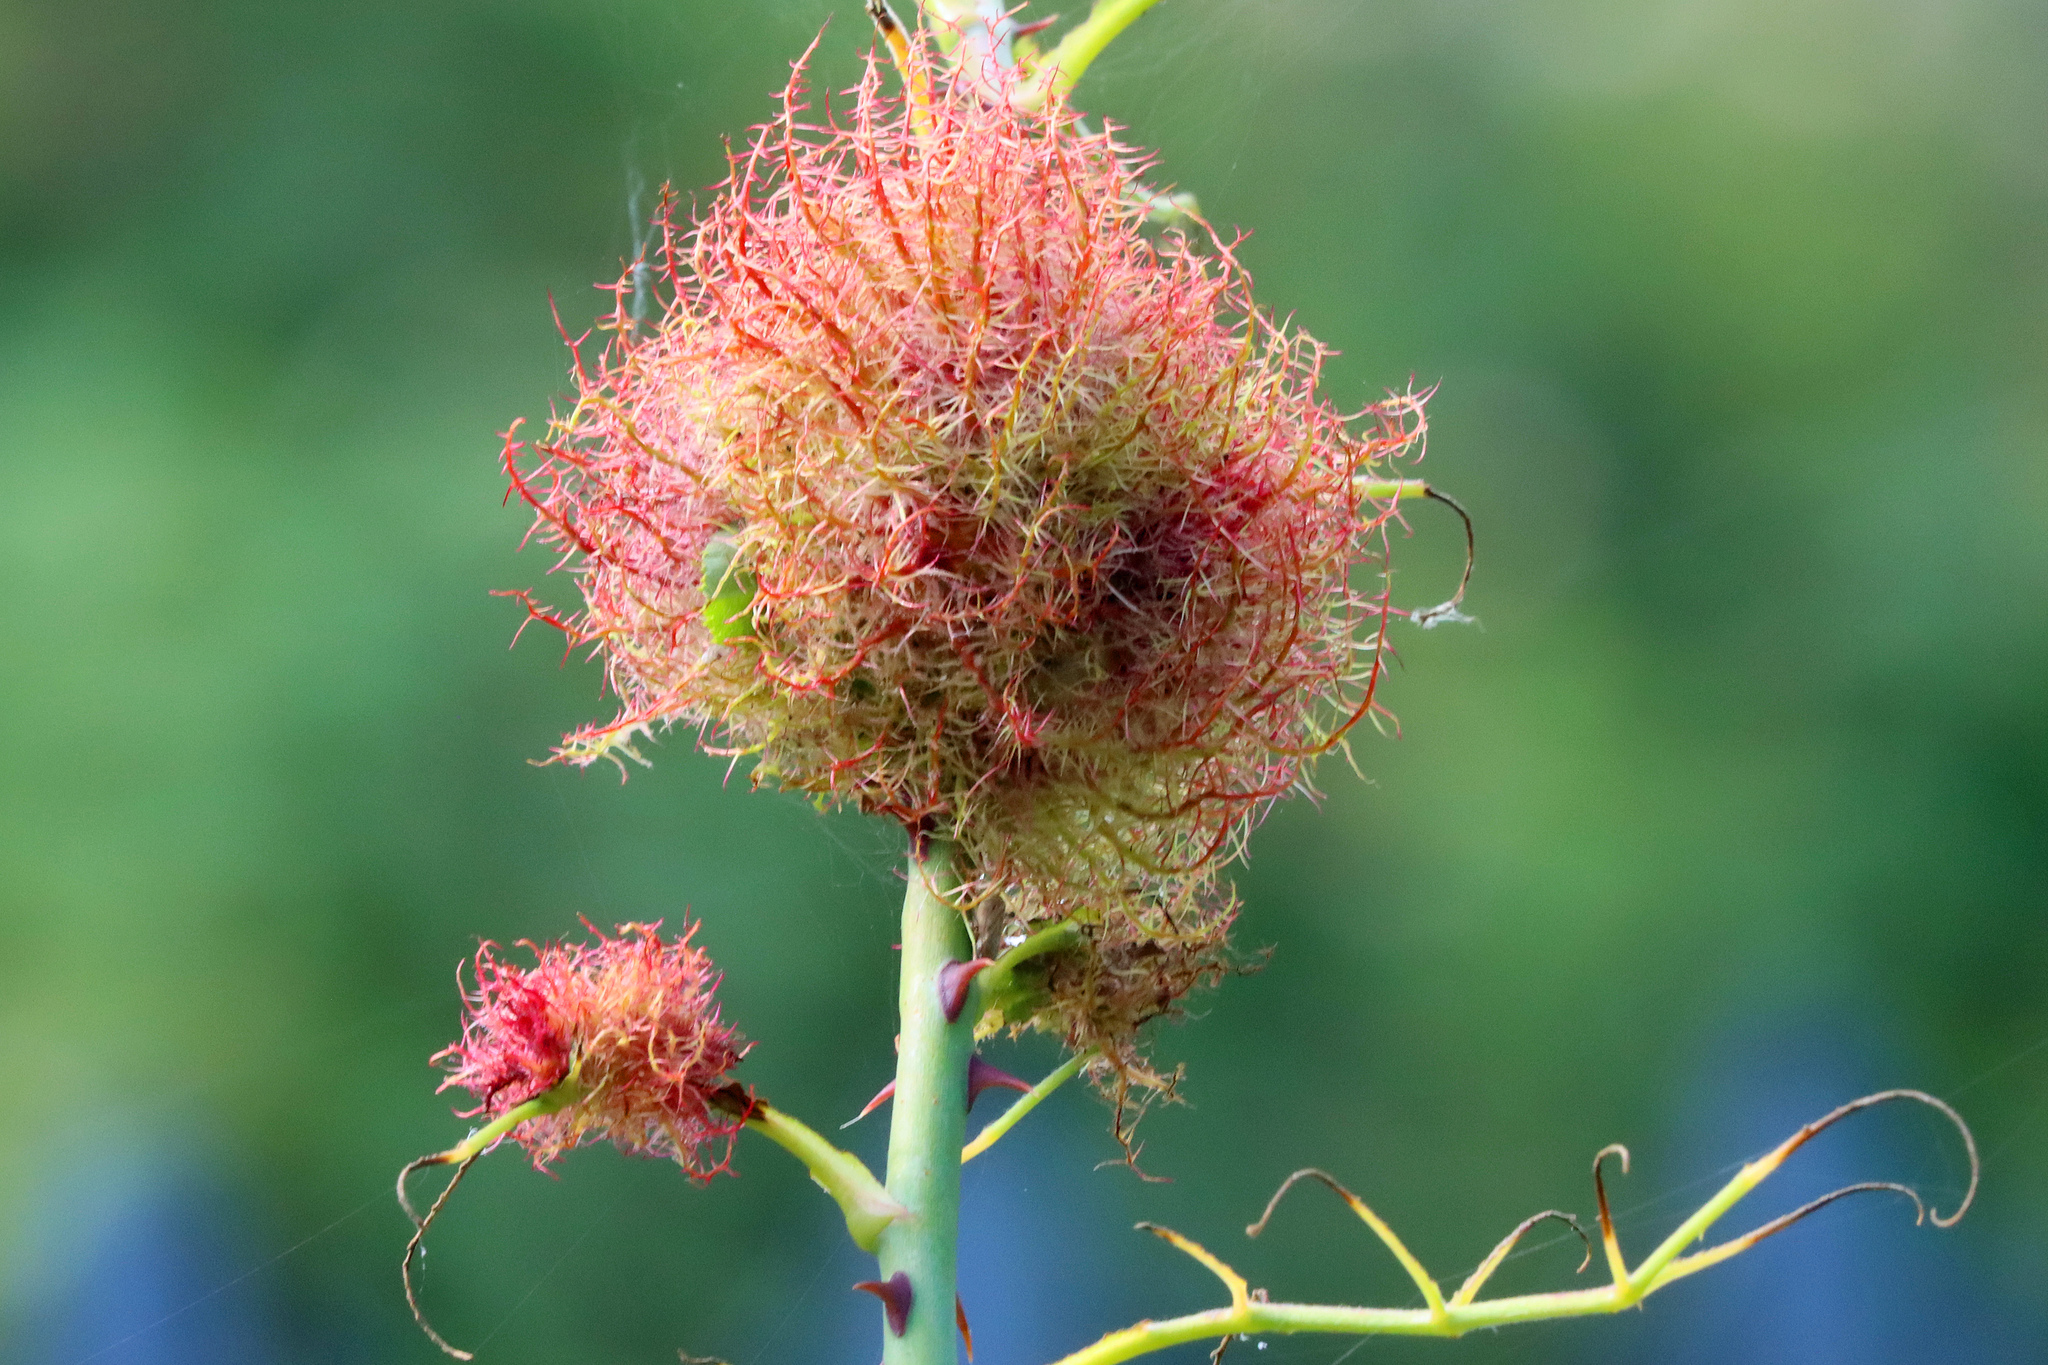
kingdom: Animalia
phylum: Arthropoda
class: Insecta
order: Hymenoptera
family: Cynipidae
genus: Diplolepis
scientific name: Diplolepis rosae
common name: Bedeguar gall
